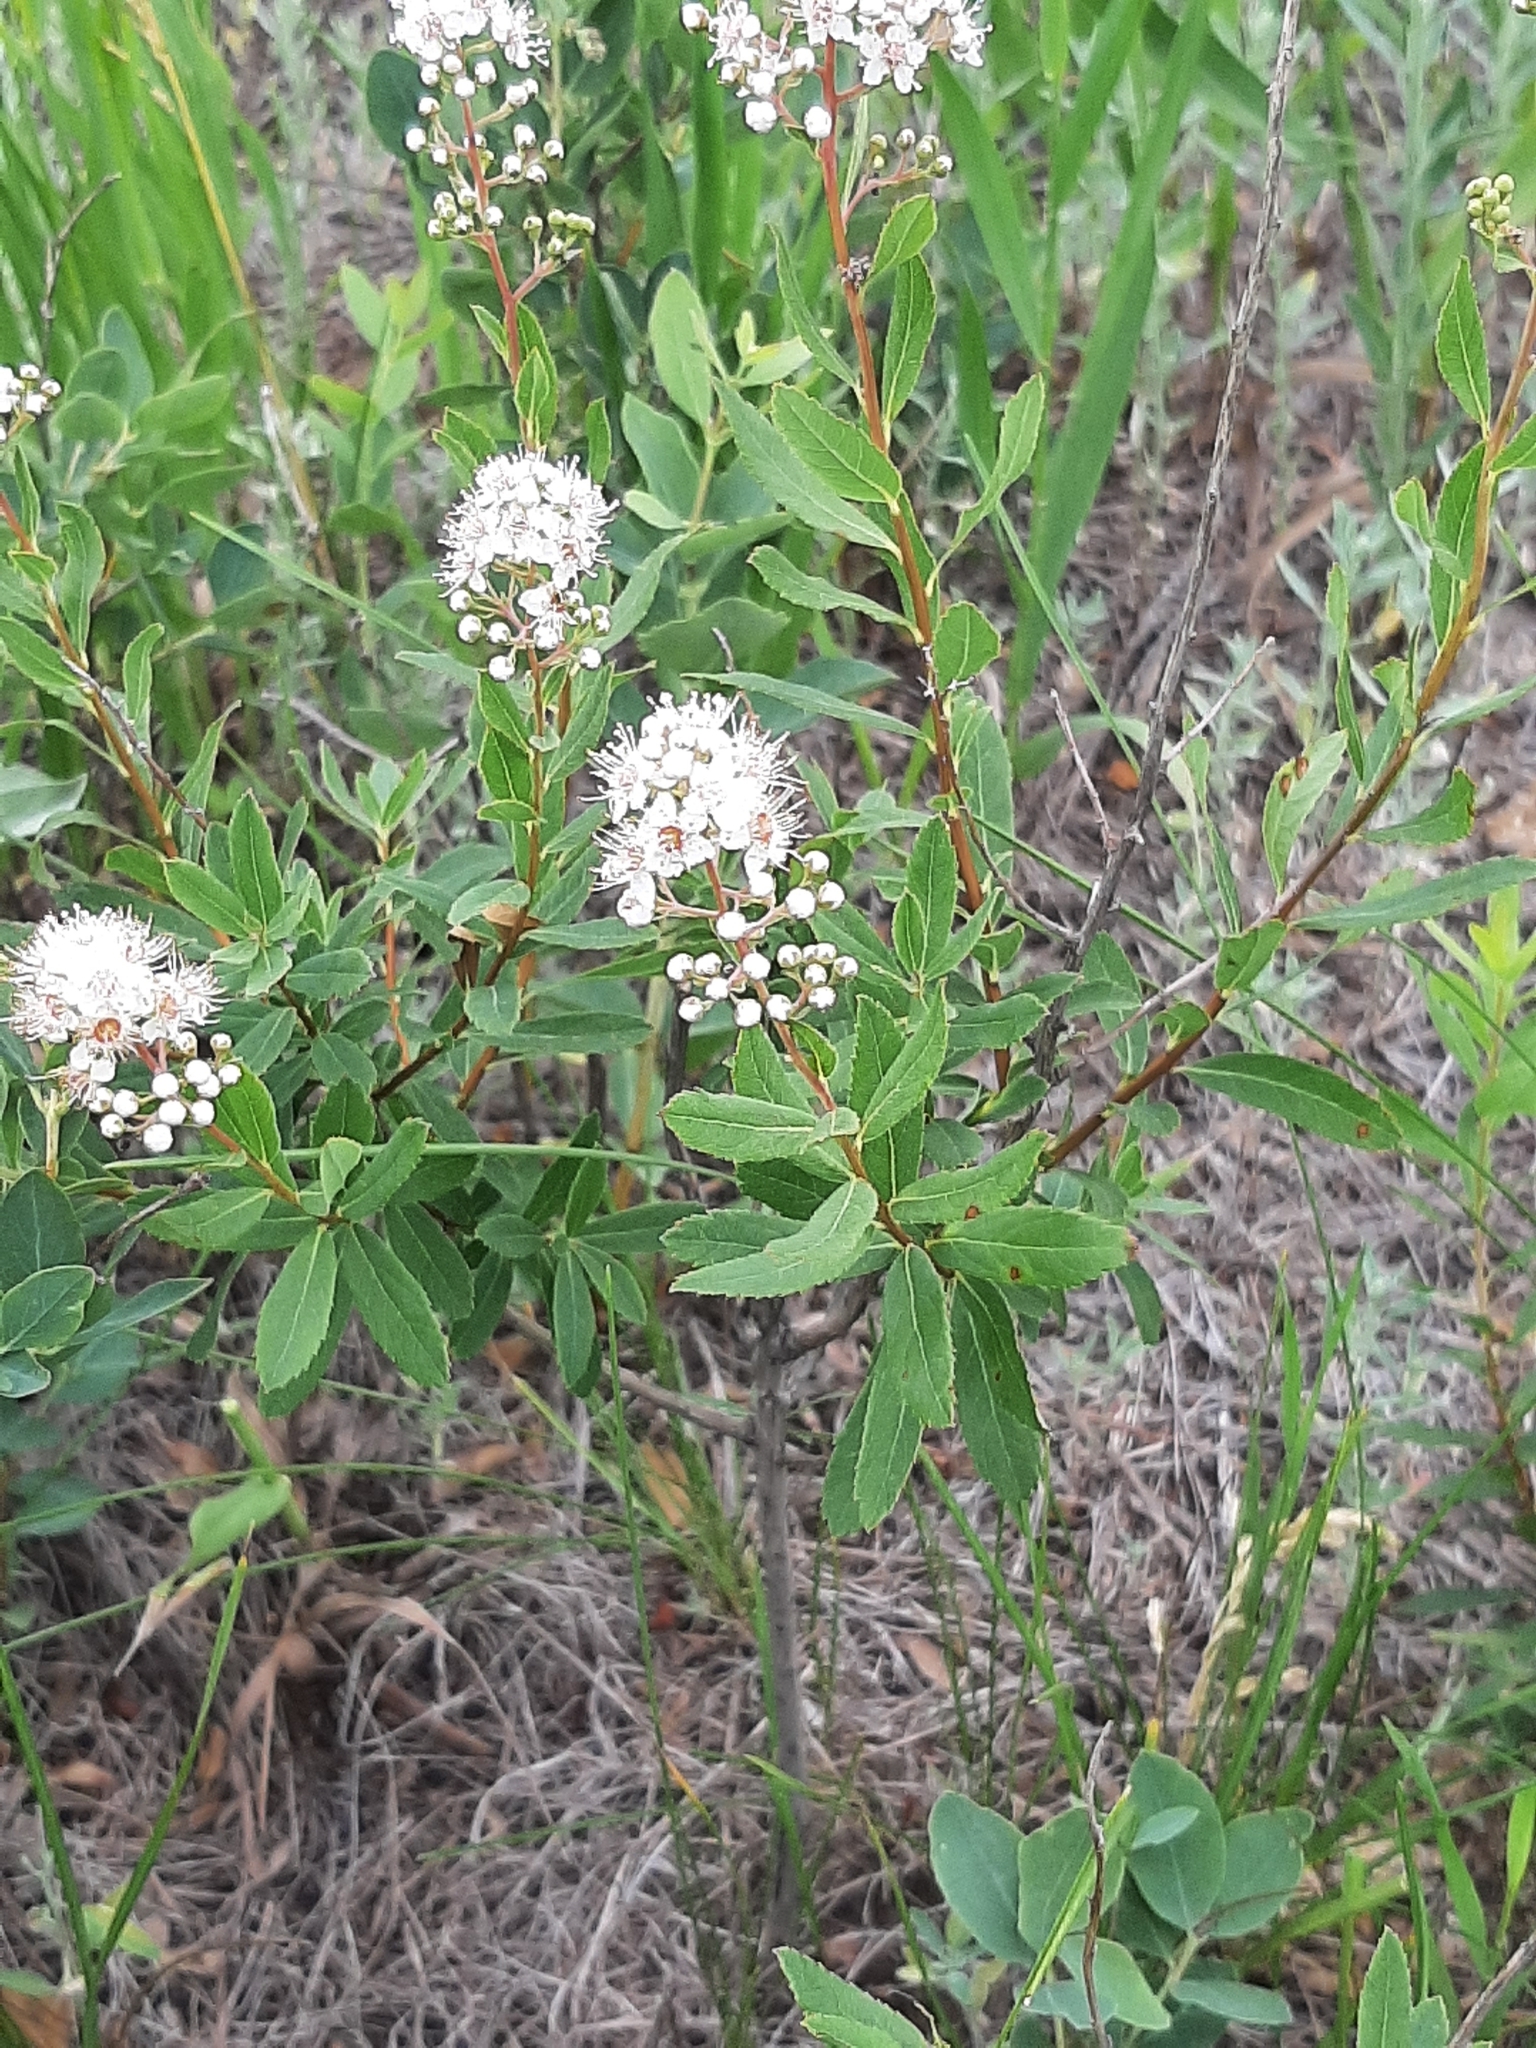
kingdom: Plantae
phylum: Tracheophyta
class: Magnoliopsida
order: Rosales
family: Rosaceae
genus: Spiraea
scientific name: Spiraea alba
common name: Pale bridewort
